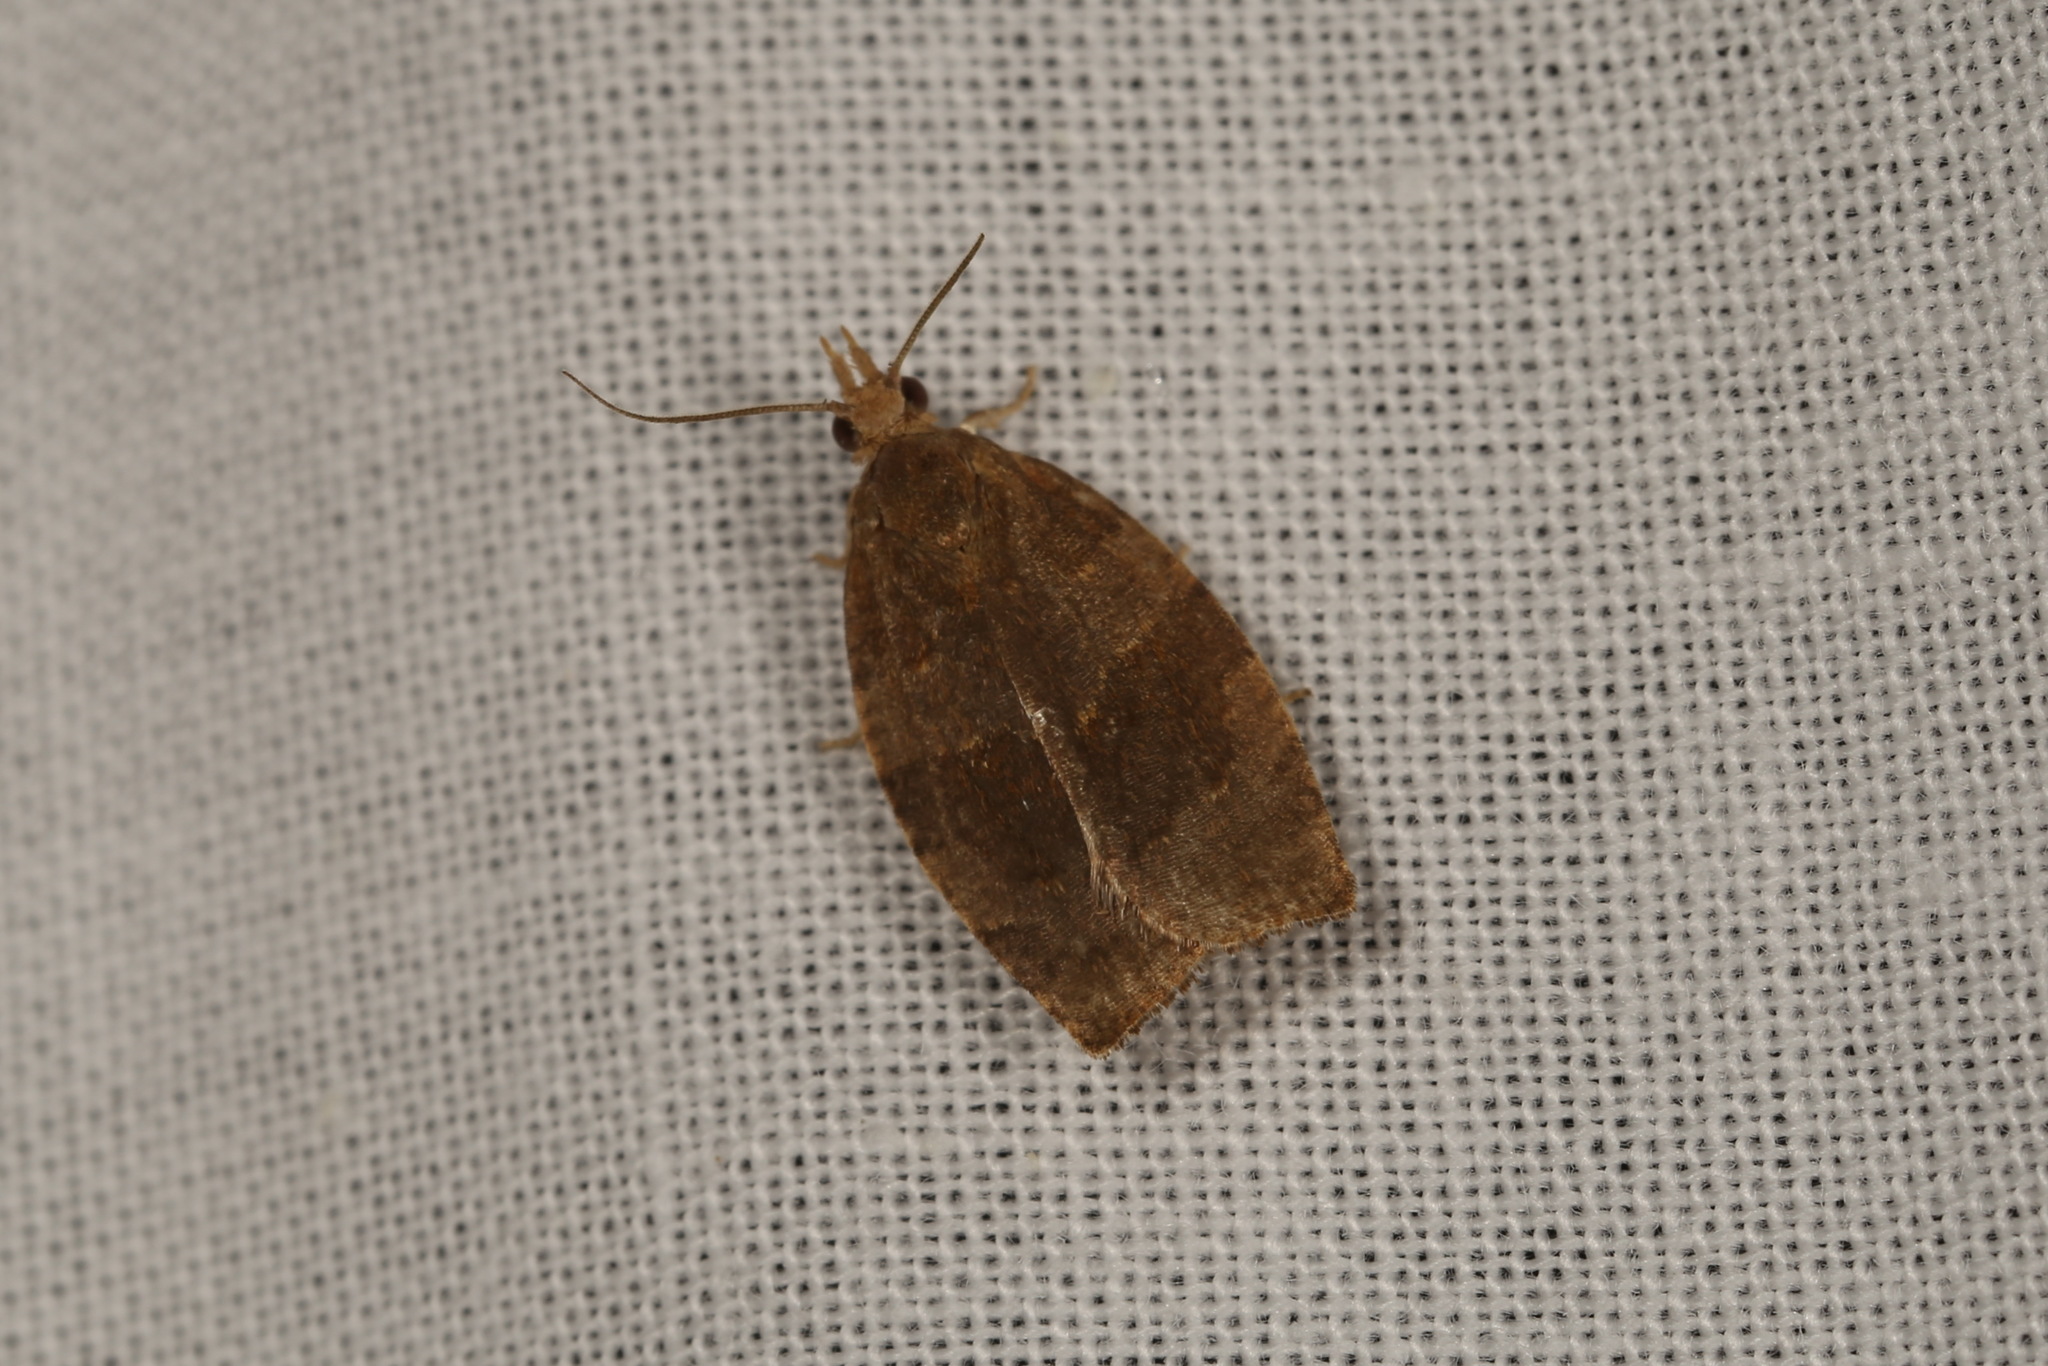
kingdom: Animalia
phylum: Arthropoda
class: Insecta
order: Lepidoptera
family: Tortricidae
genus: Pandemis
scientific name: Pandemis heparana
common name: Dark fruit-tree tortrix
